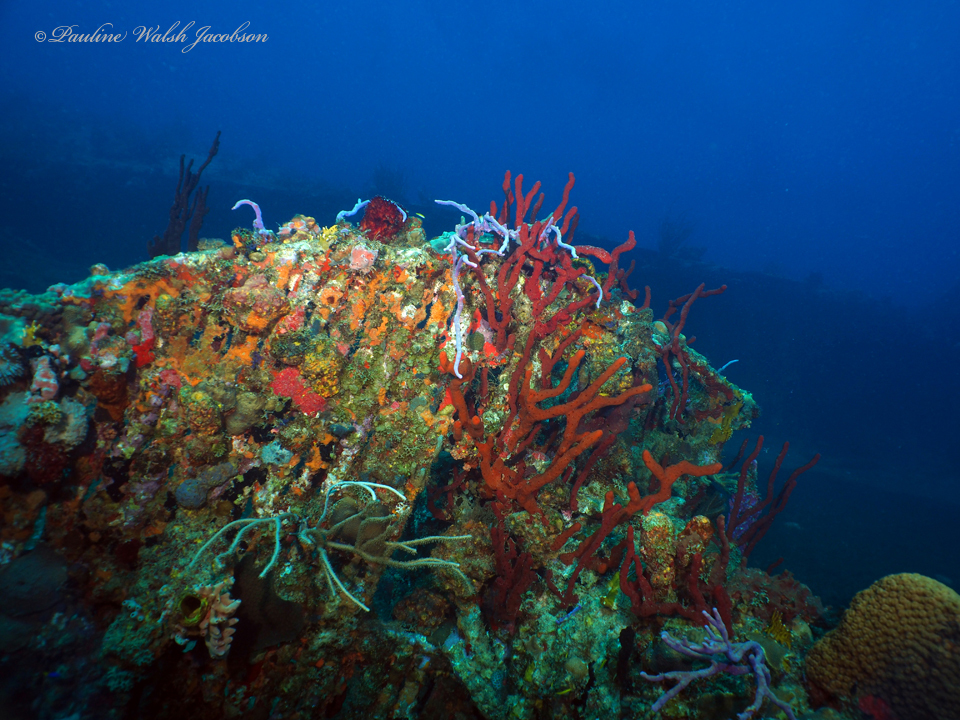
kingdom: Animalia
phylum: Cnidaria
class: Anthozoa
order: Scleractinia
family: Montastraeidae
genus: Montastraea
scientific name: Montastraea cavernosa
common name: Great star coral
